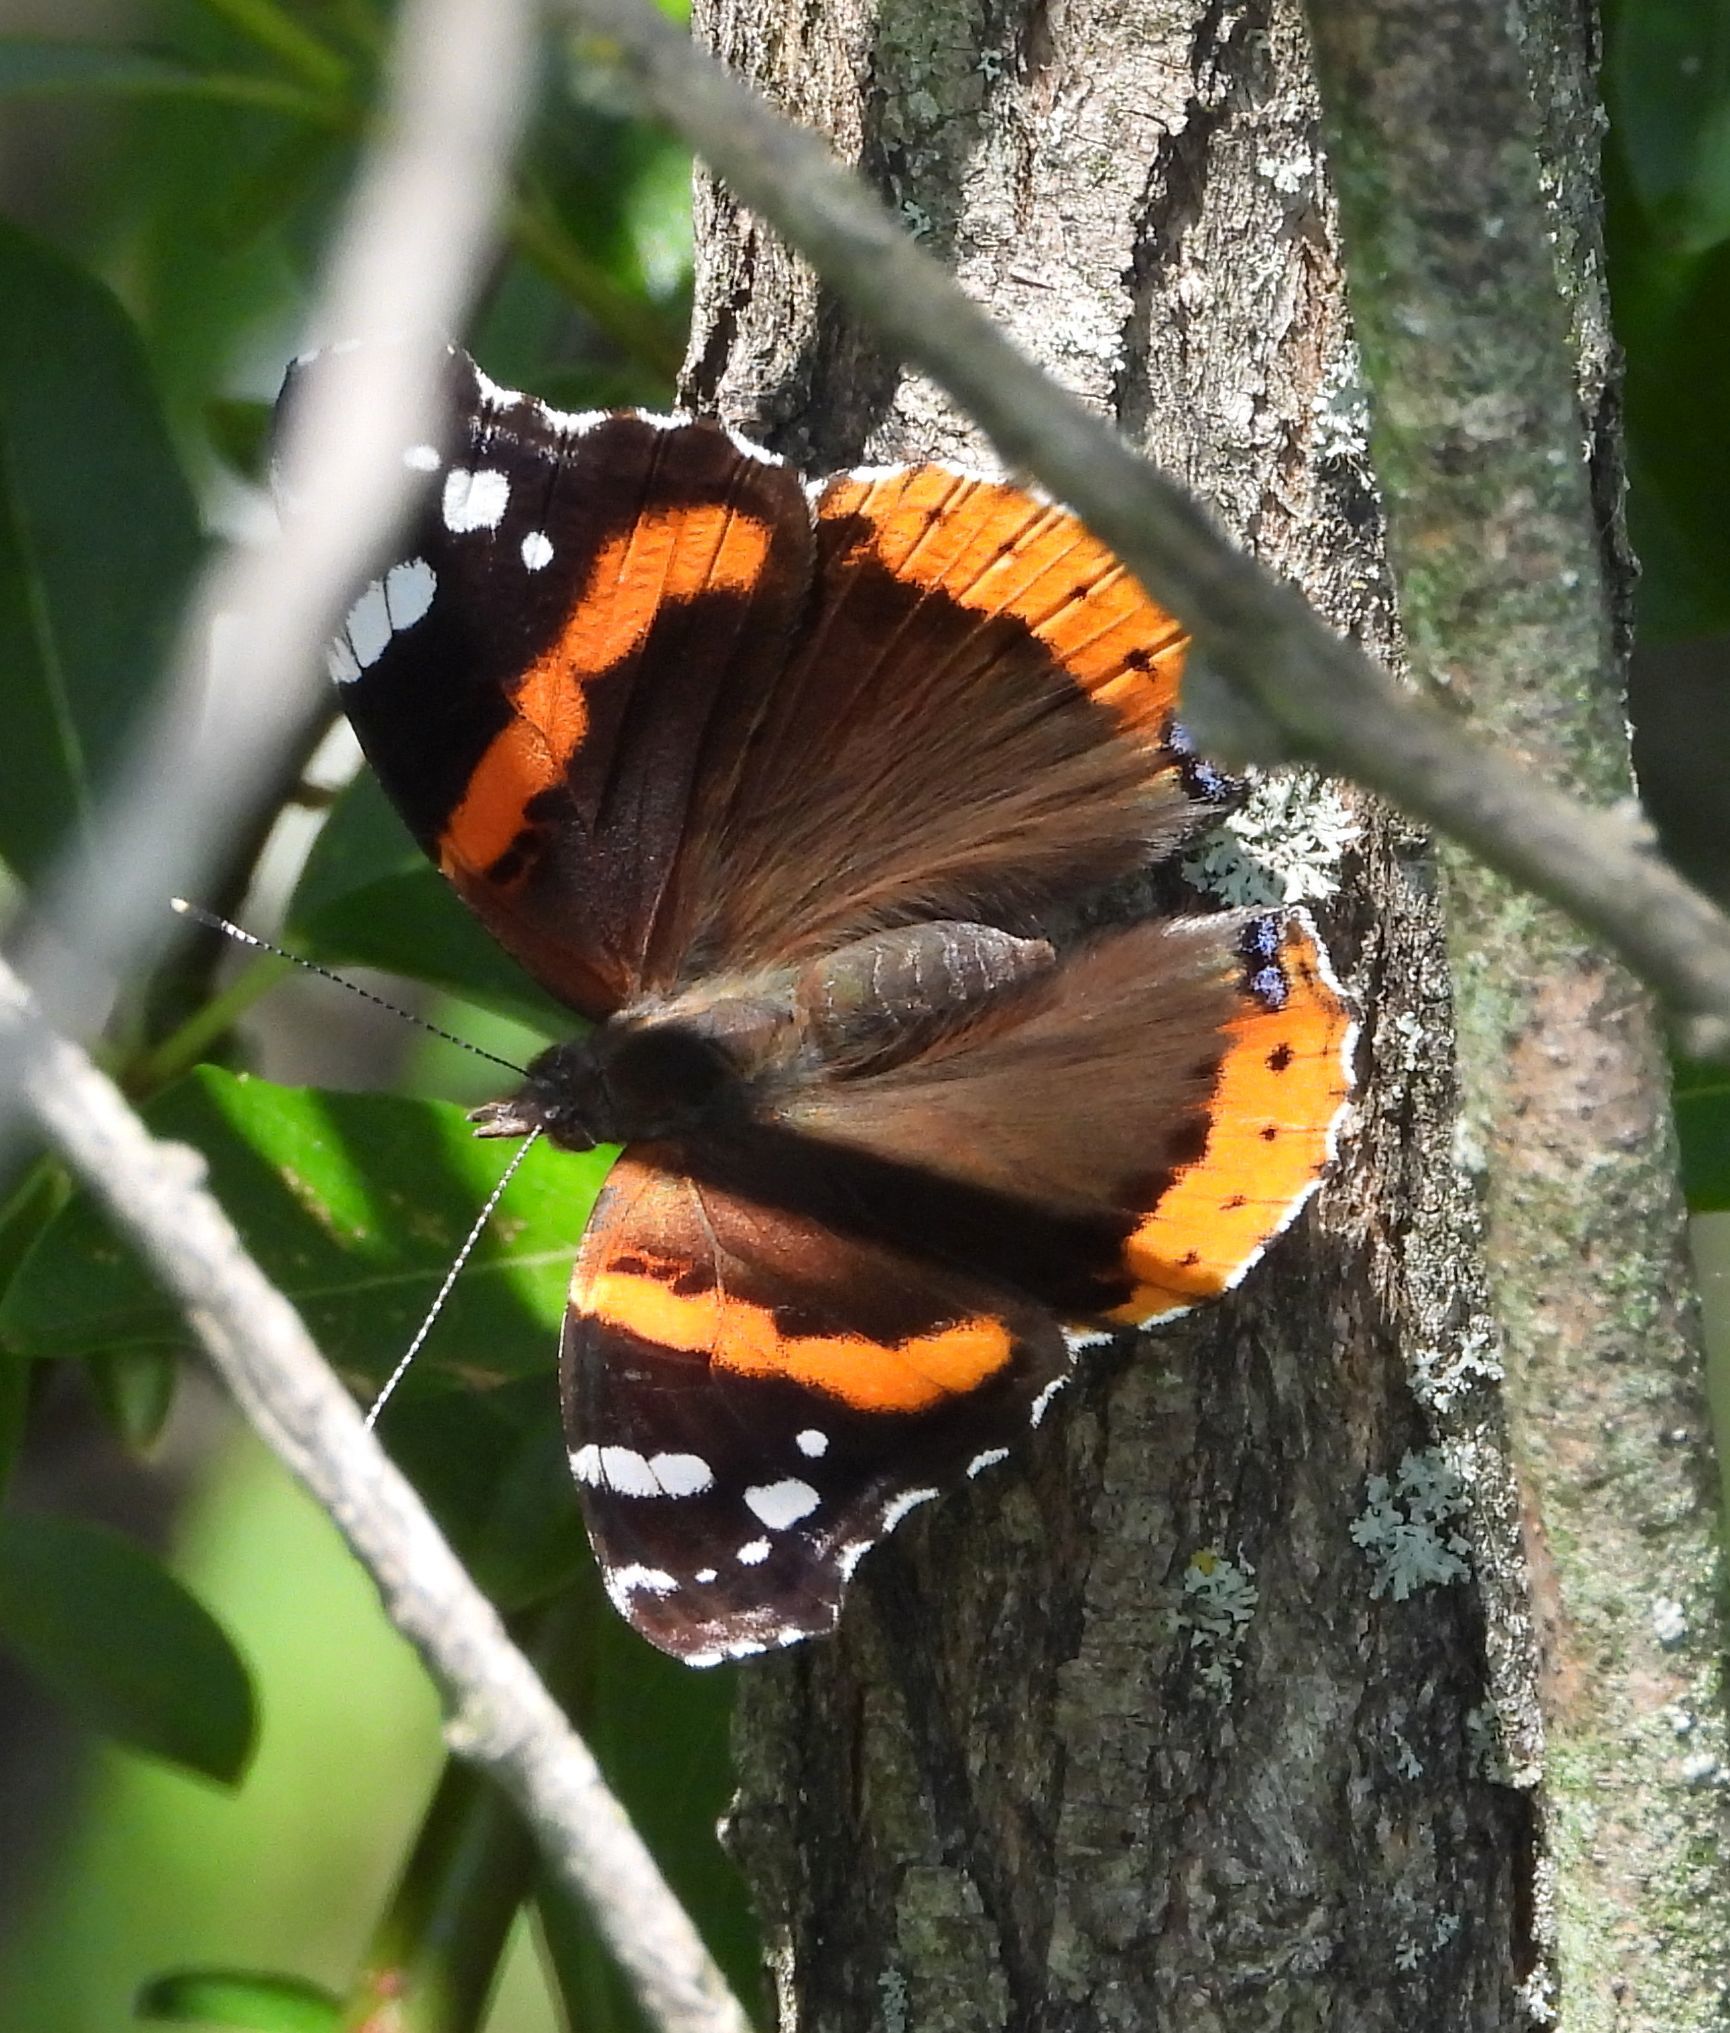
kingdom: Animalia
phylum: Arthropoda
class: Insecta
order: Lepidoptera
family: Nymphalidae
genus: Vanessa
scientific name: Vanessa atalanta
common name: Red admiral
